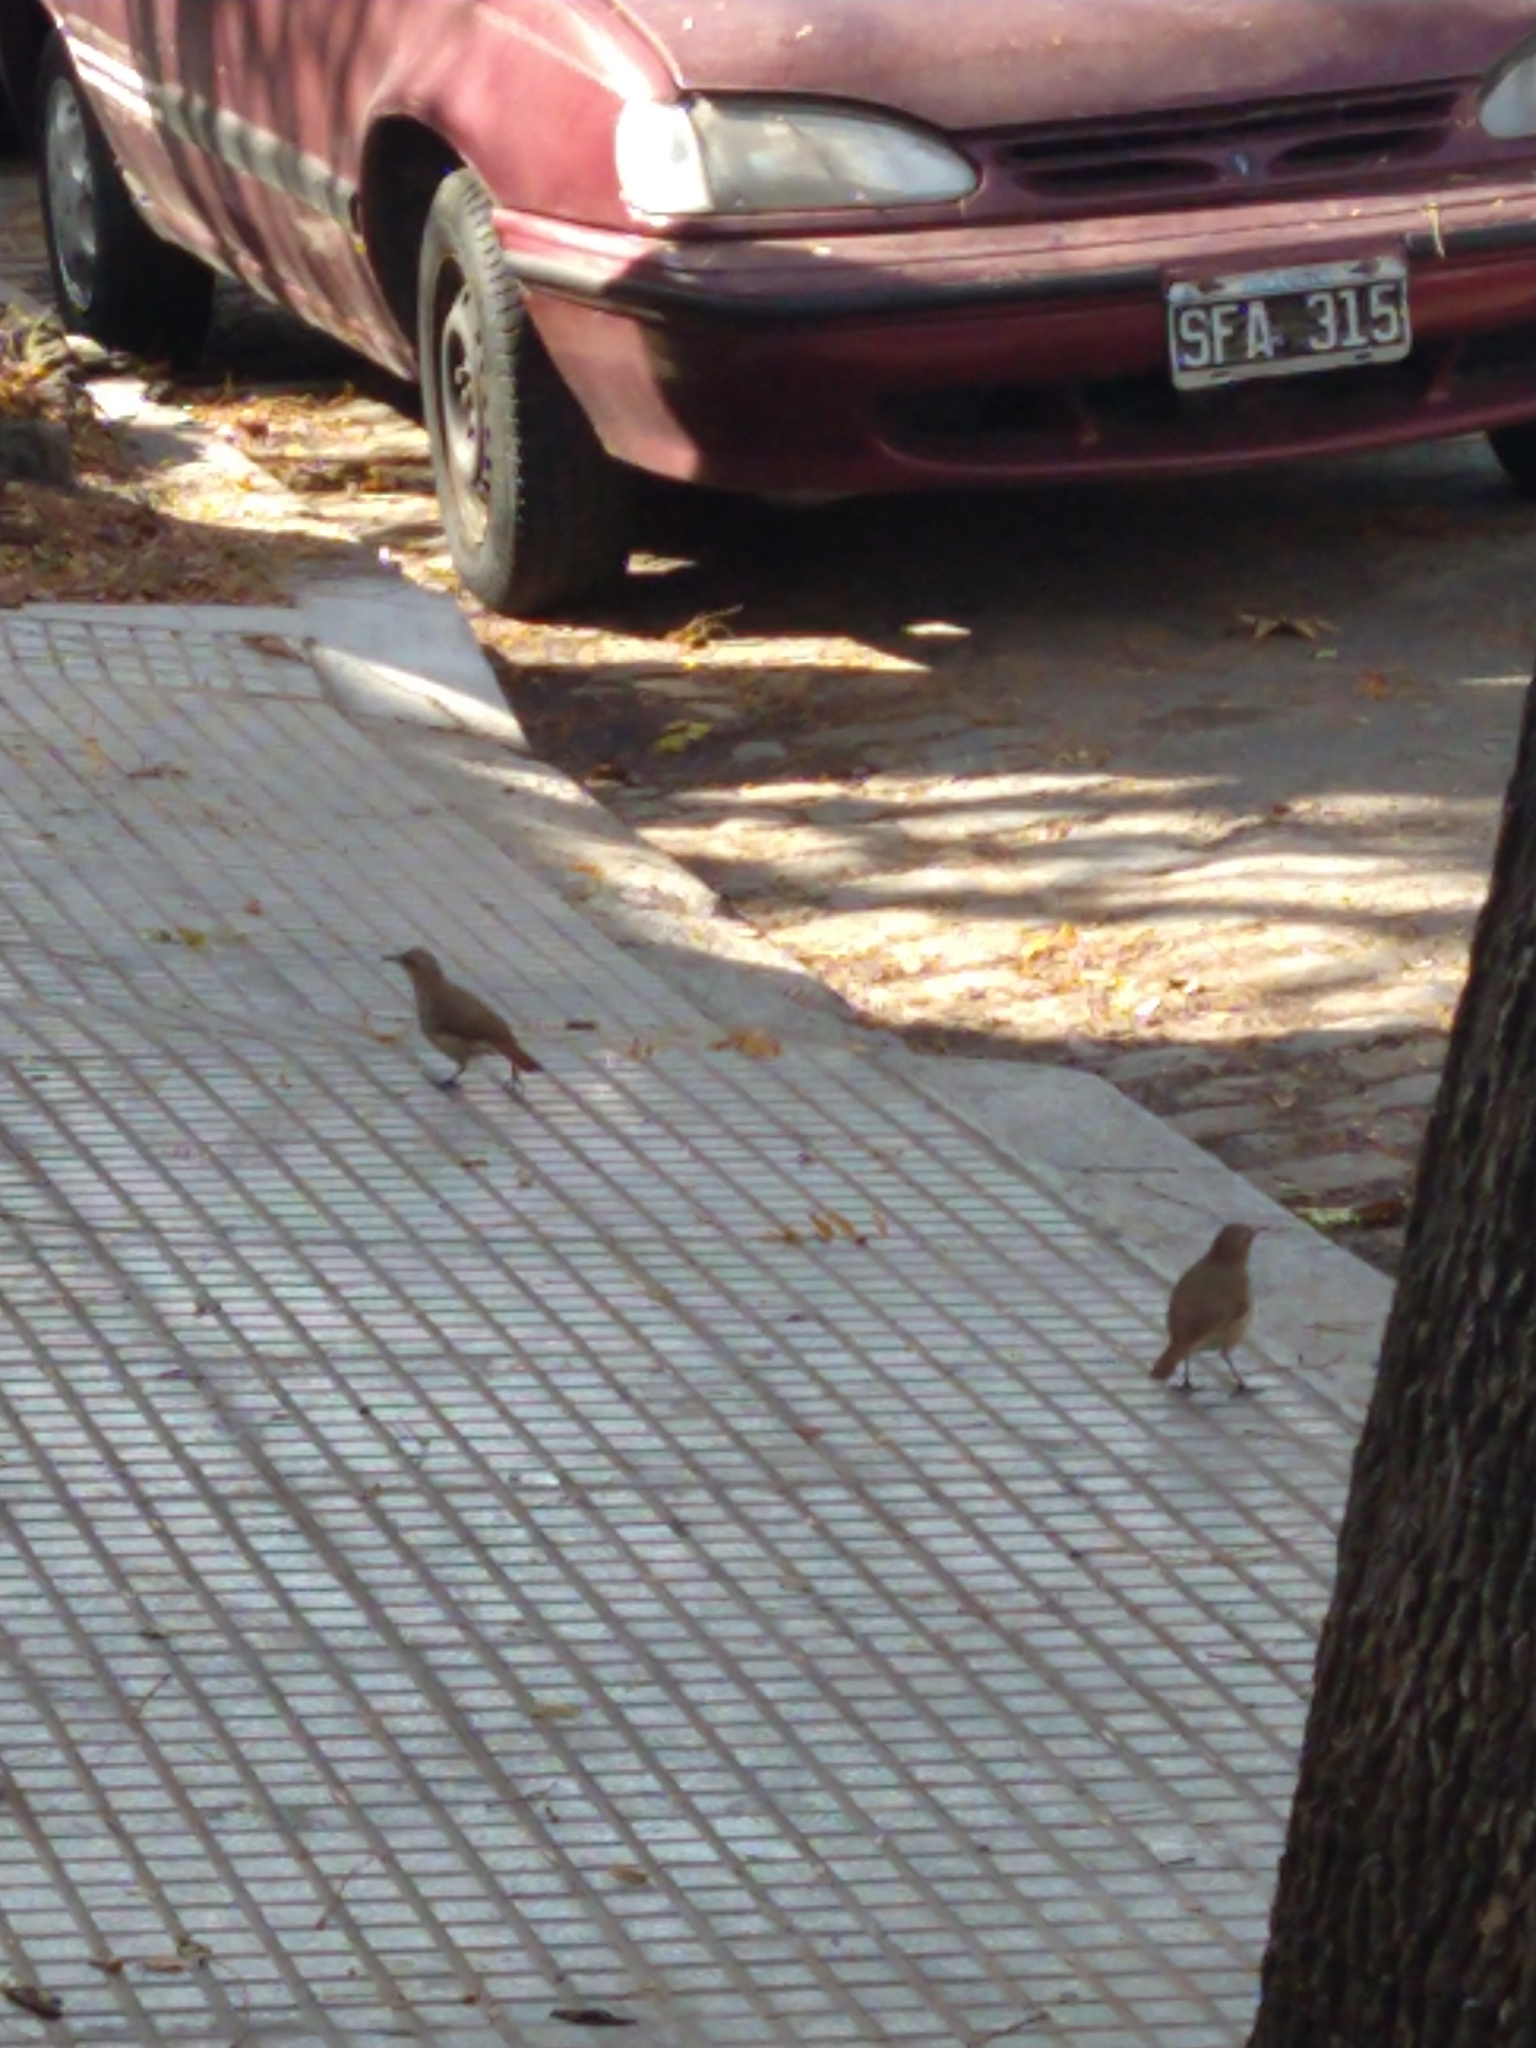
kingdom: Animalia
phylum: Chordata
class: Aves
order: Passeriformes
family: Furnariidae
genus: Furnarius
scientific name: Furnarius rufus
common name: Rufous hornero
